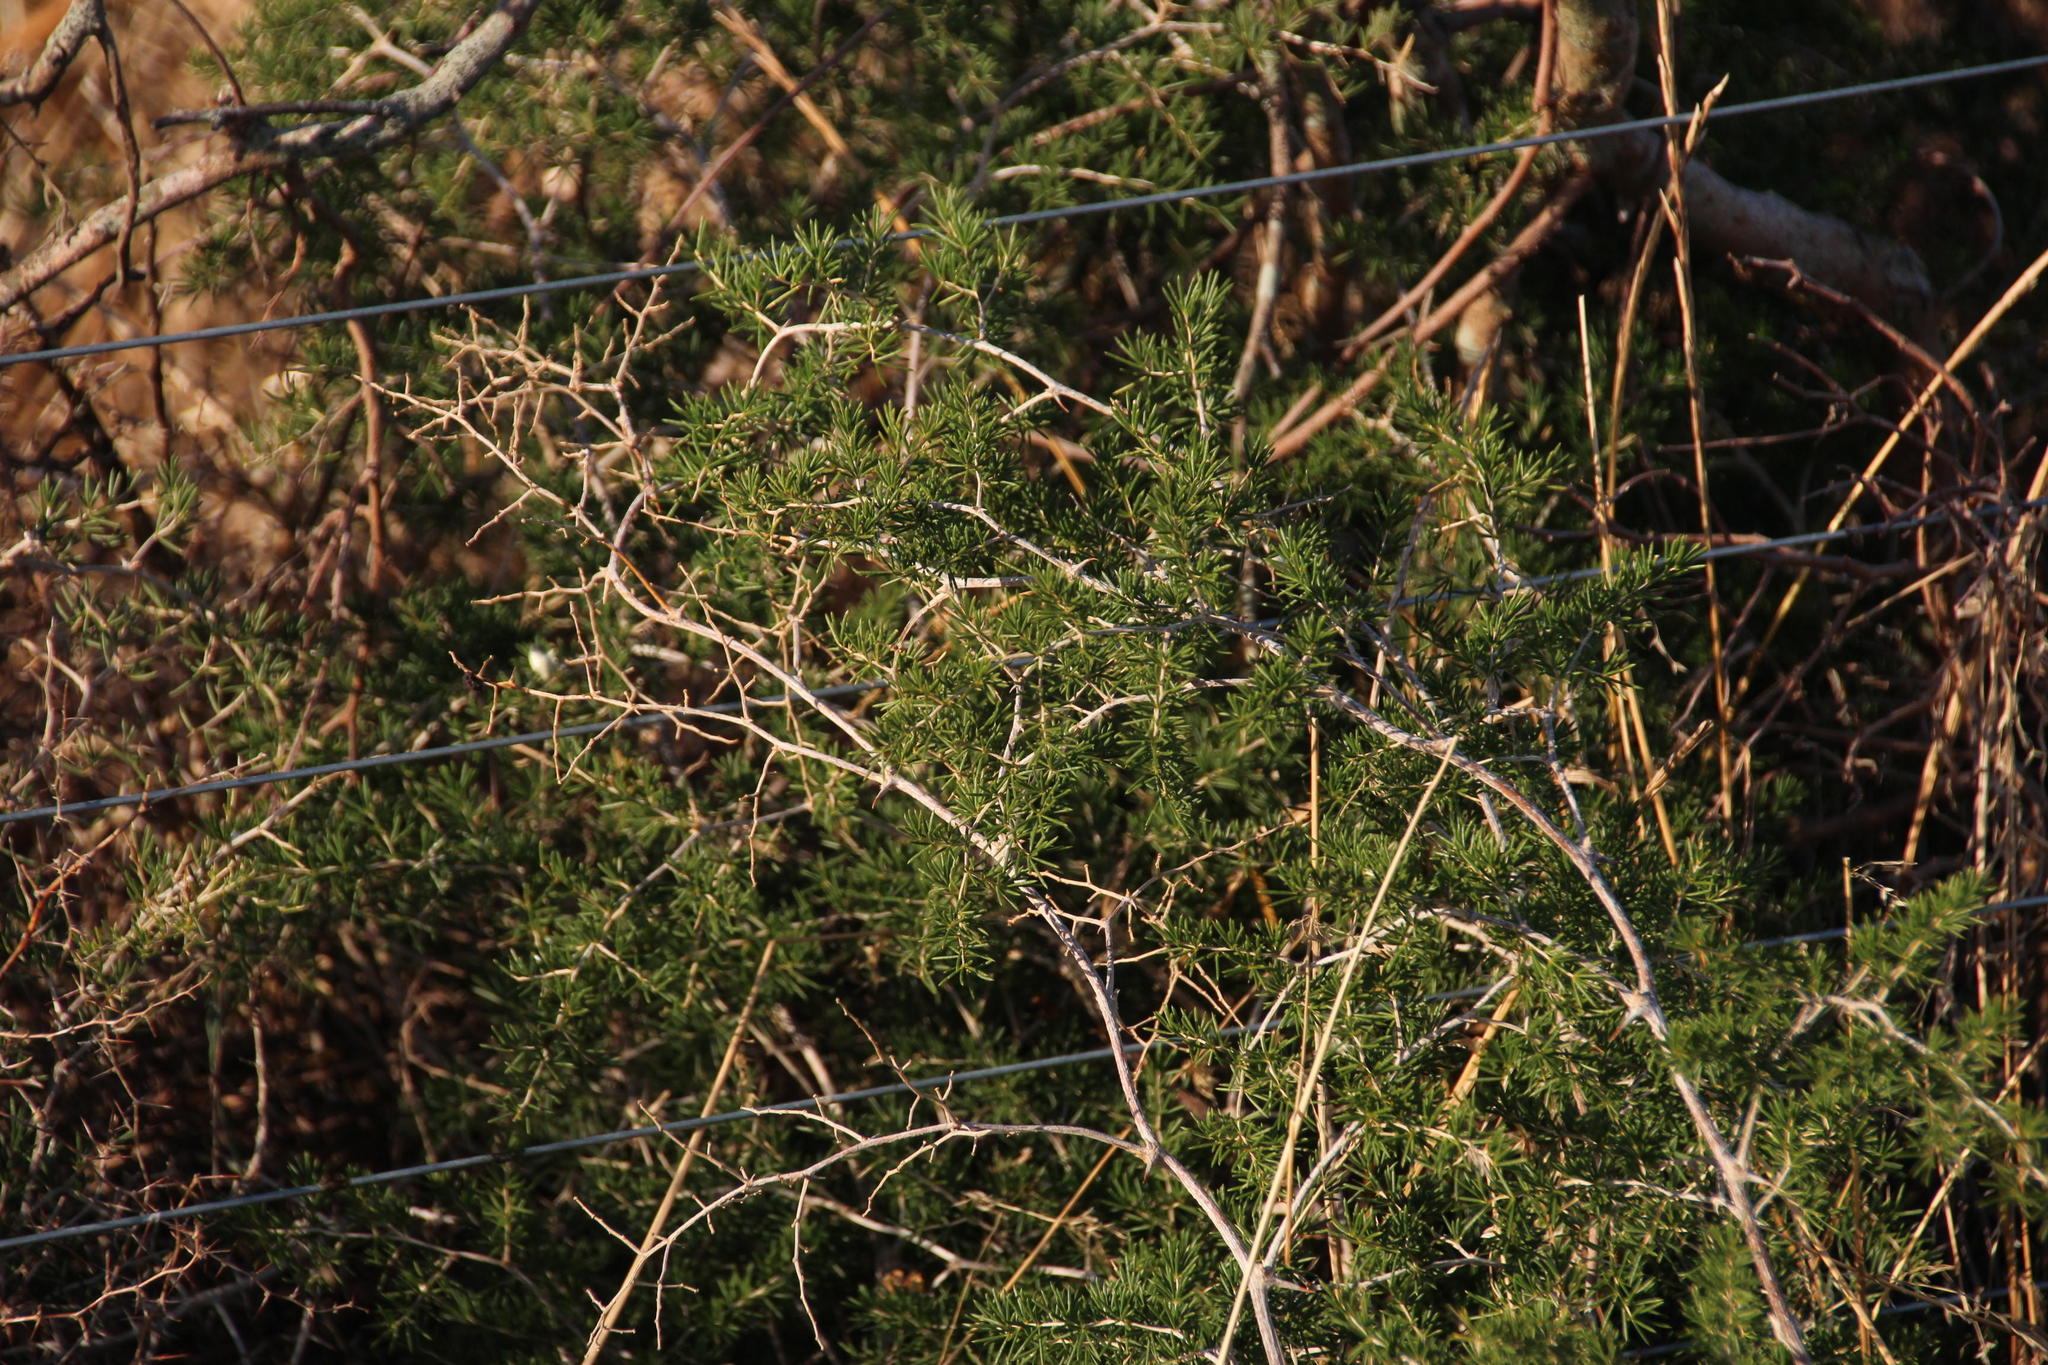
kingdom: Plantae
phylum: Tracheophyta
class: Liliopsida
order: Asparagales
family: Asparagaceae
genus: Asparagus
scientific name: Asparagus lignosus
